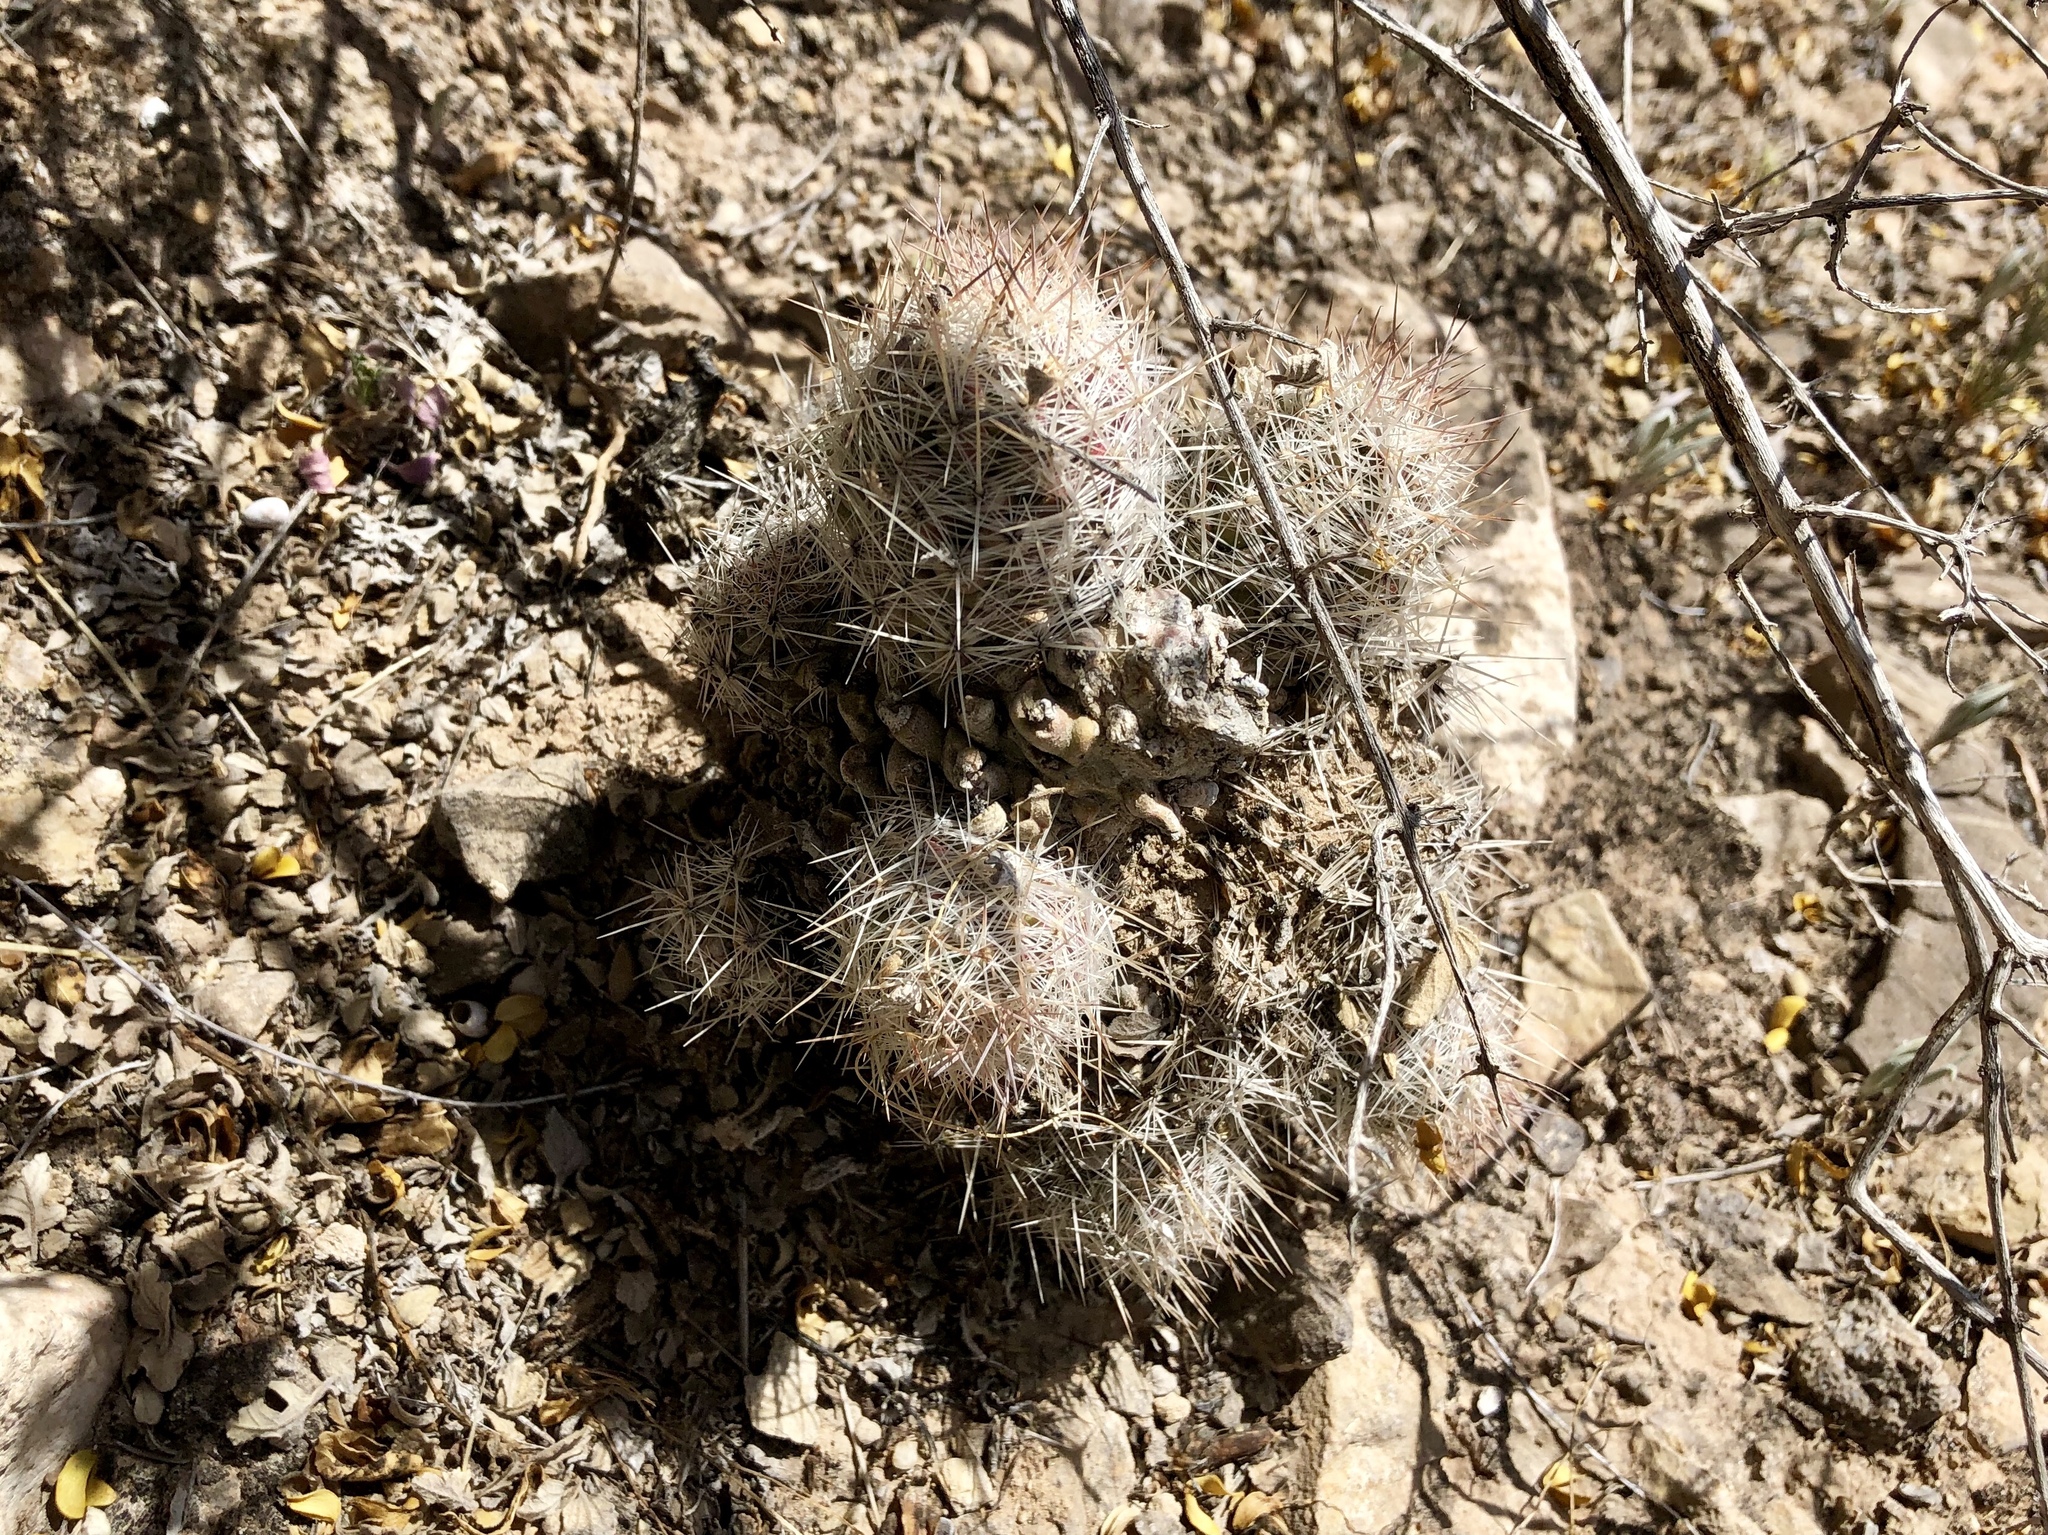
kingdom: Plantae
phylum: Tracheophyta
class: Magnoliopsida
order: Caryophyllales
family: Cactaceae
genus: Pelecyphora
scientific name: Pelecyphora tuberculosa
